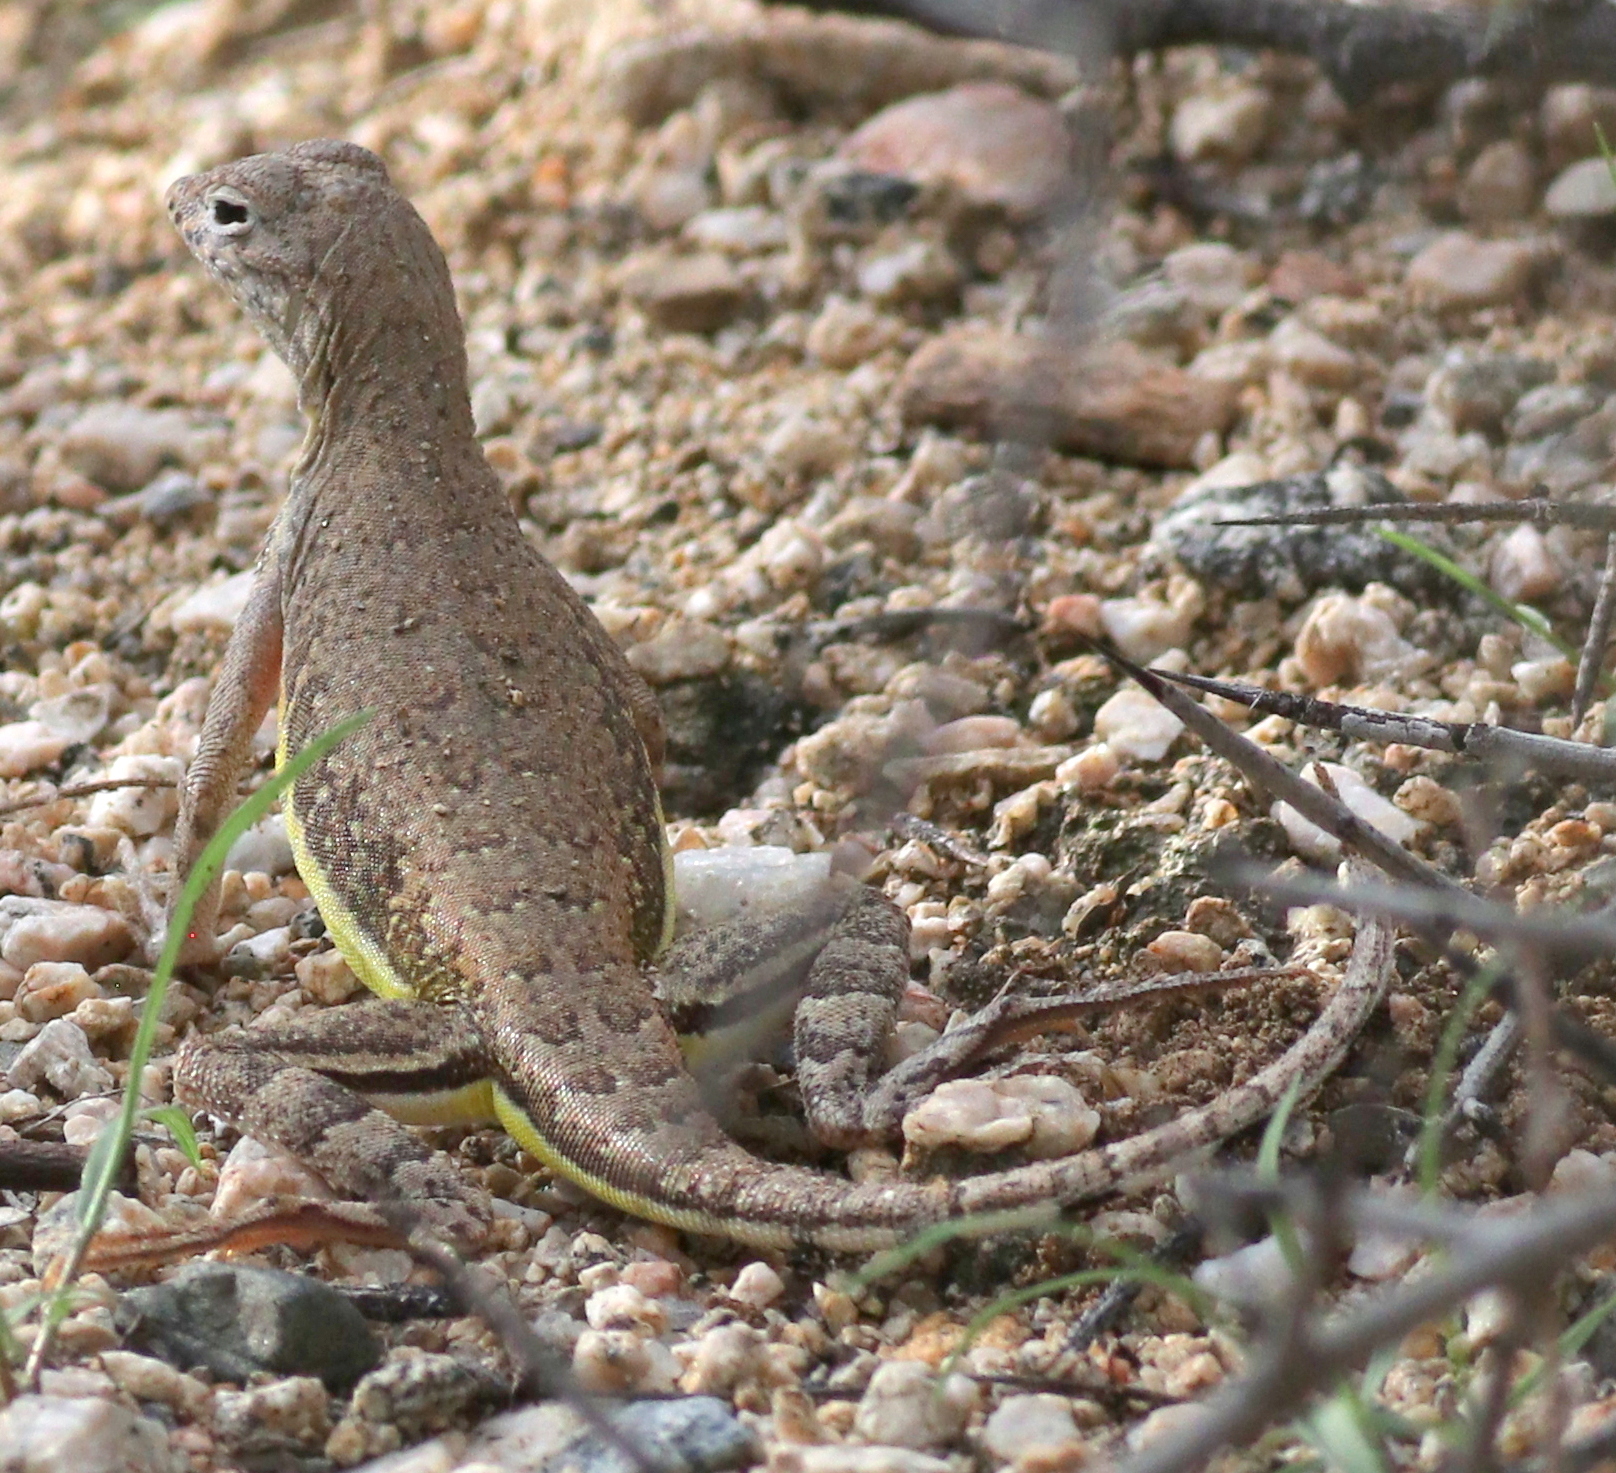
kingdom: Animalia
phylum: Chordata
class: Squamata
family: Phrynosomatidae
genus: Callisaurus
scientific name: Callisaurus draconoides
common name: Zebra-tailed lizard
